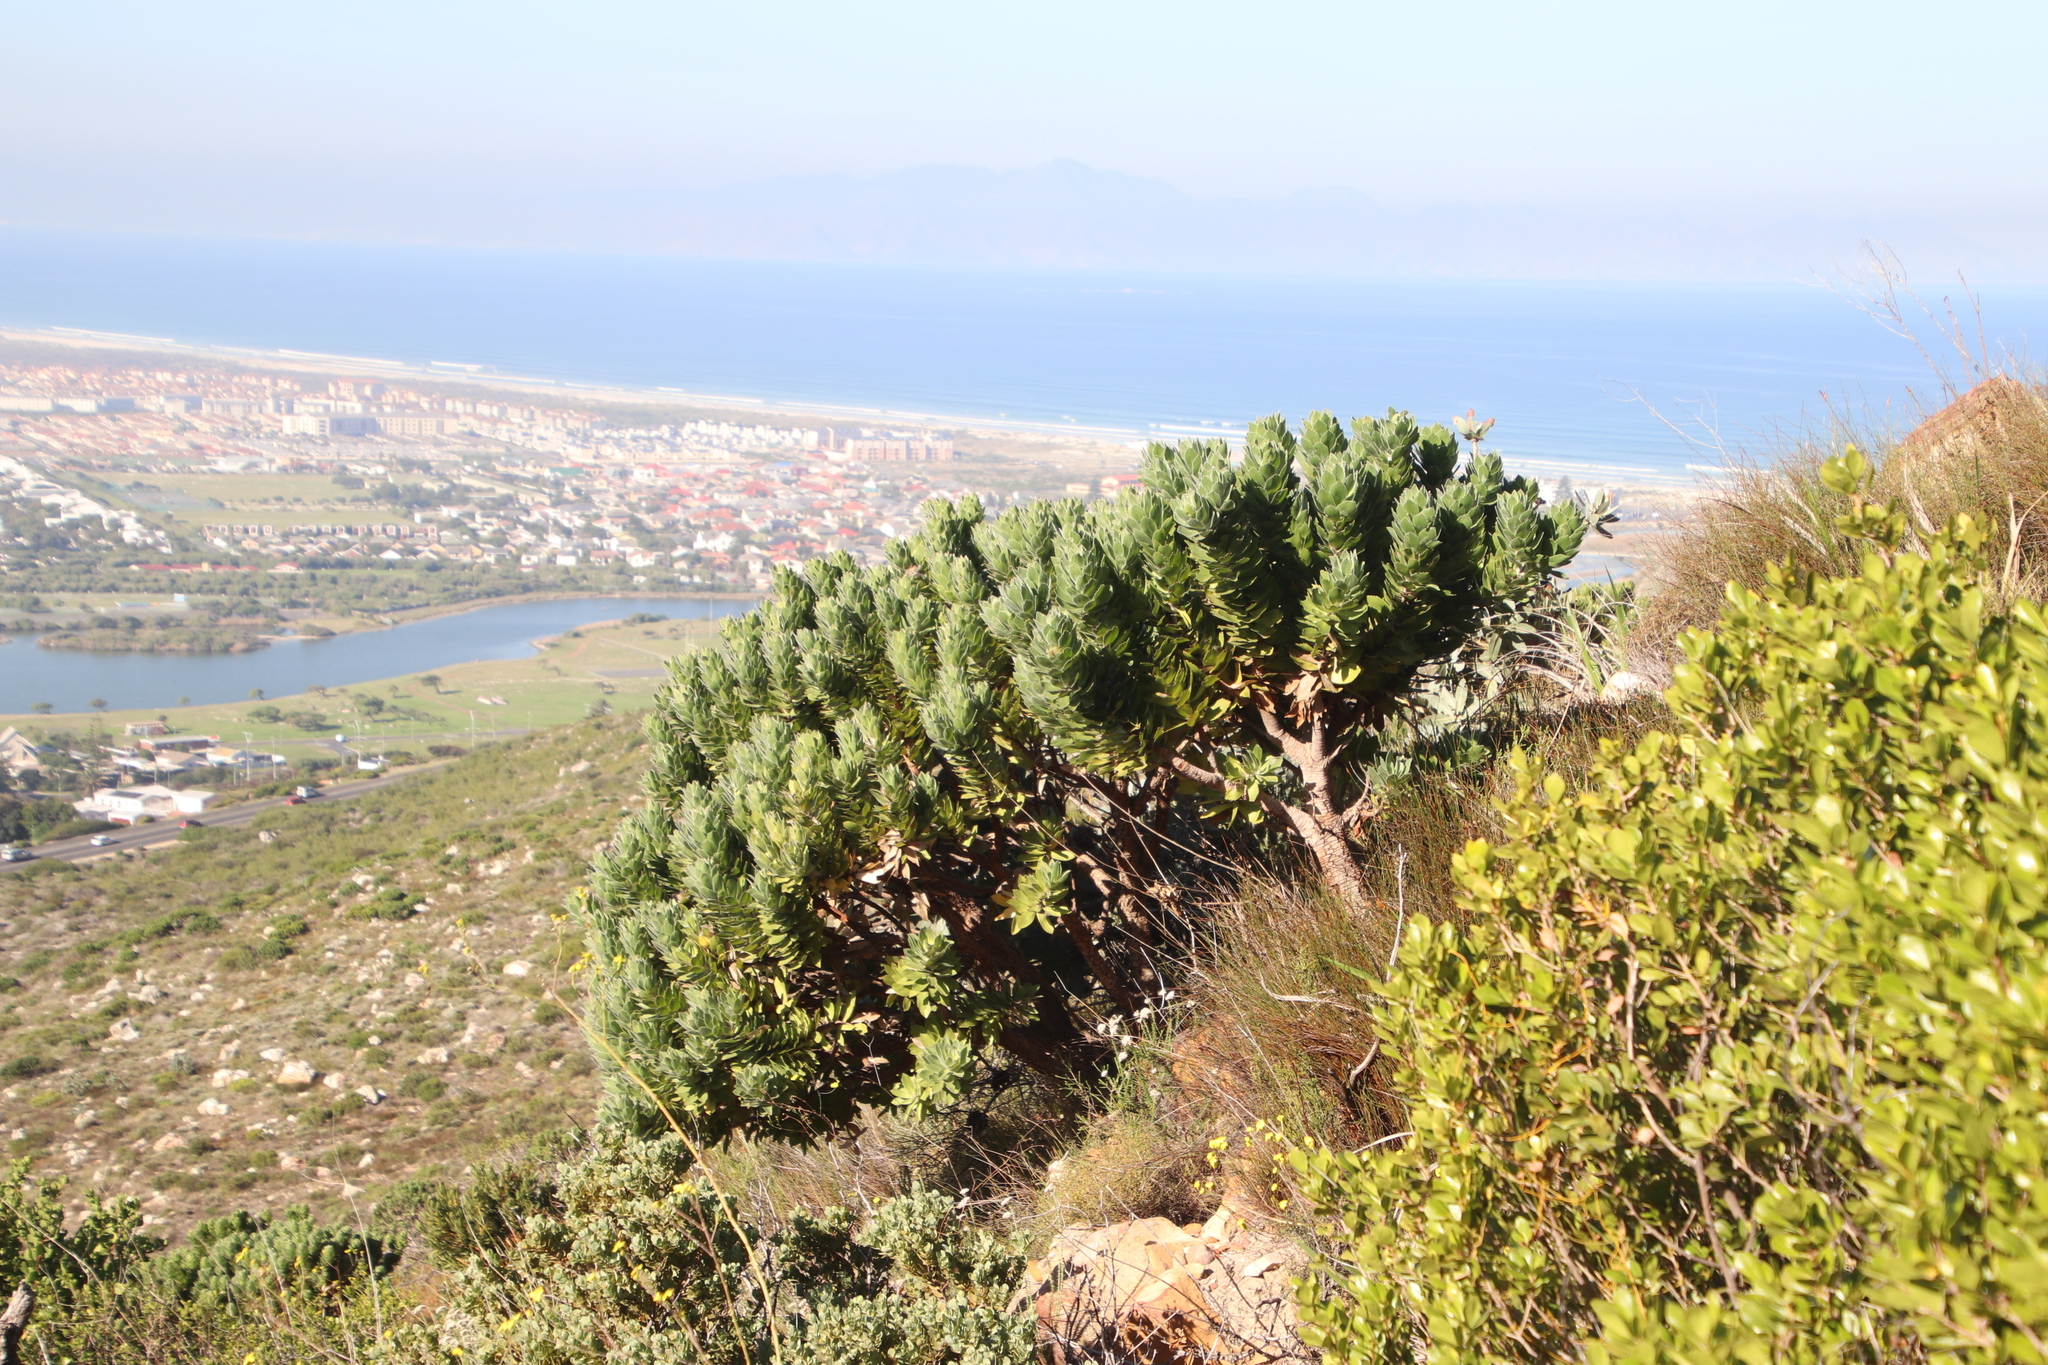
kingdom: Plantae
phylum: Tracheophyta
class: Magnoliopsida
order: Proteales
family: Proteaceae
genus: Leucospermum
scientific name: Leucospermum conocarpodendron
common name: Tree pincushion
